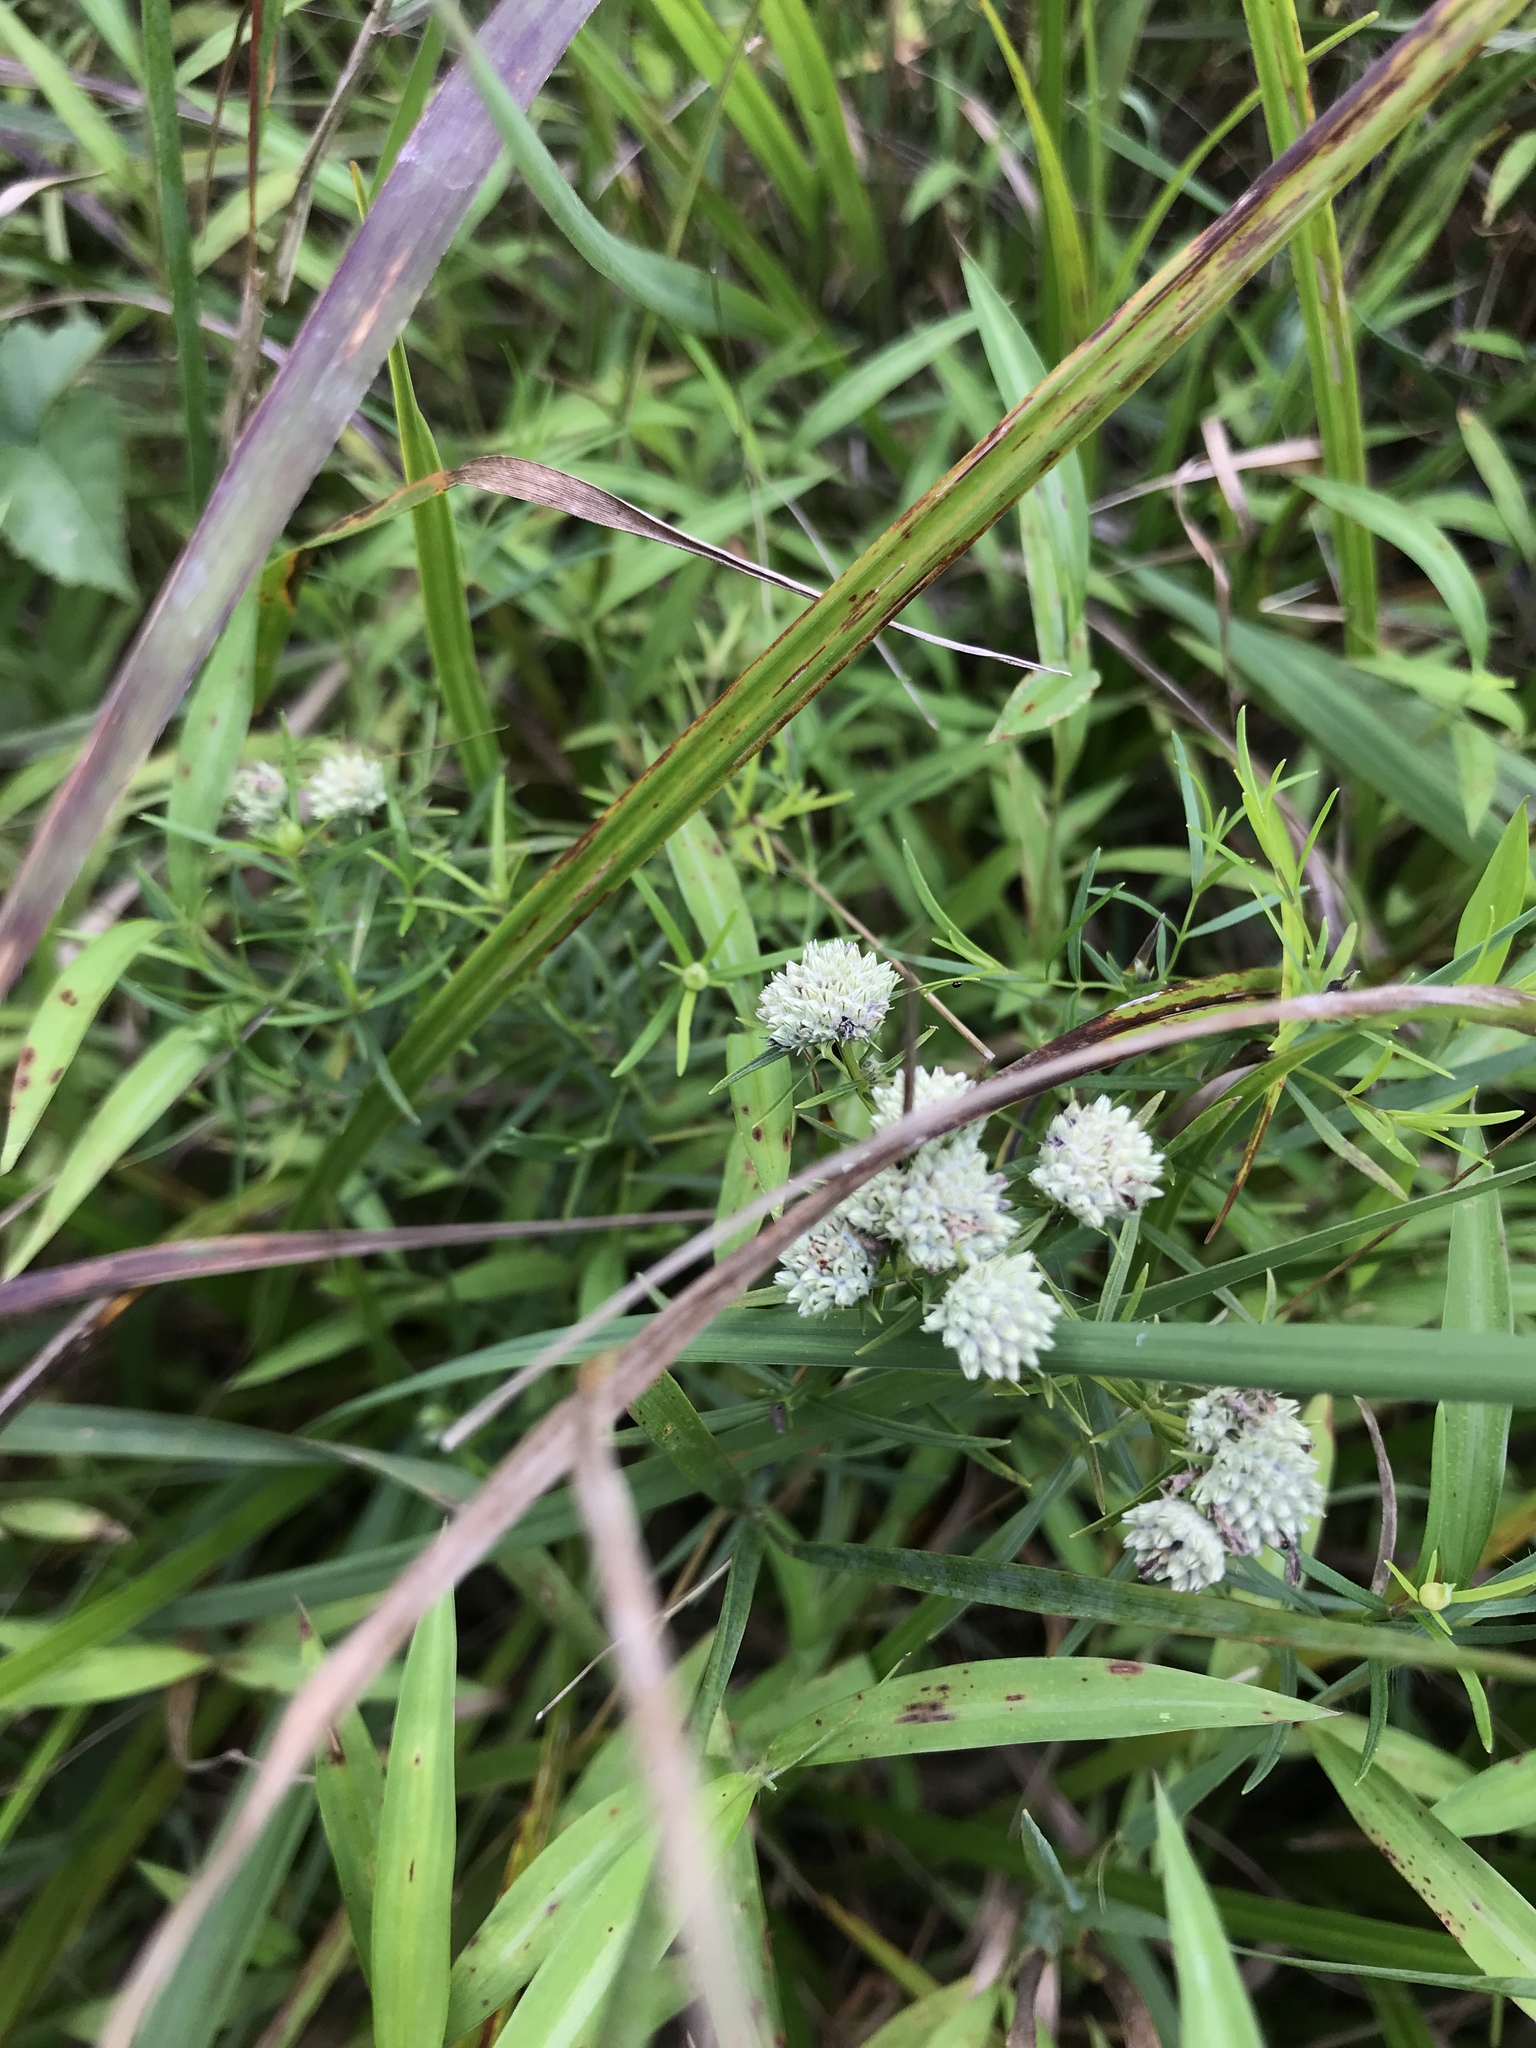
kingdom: Plantae
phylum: Tracheophyta
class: Magnoliopsida
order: Lamiales
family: Lamiaceae
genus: Pycnanthemum
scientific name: Pycnanthemum tenuifolium
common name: Narrow-leaf mountain-mint
